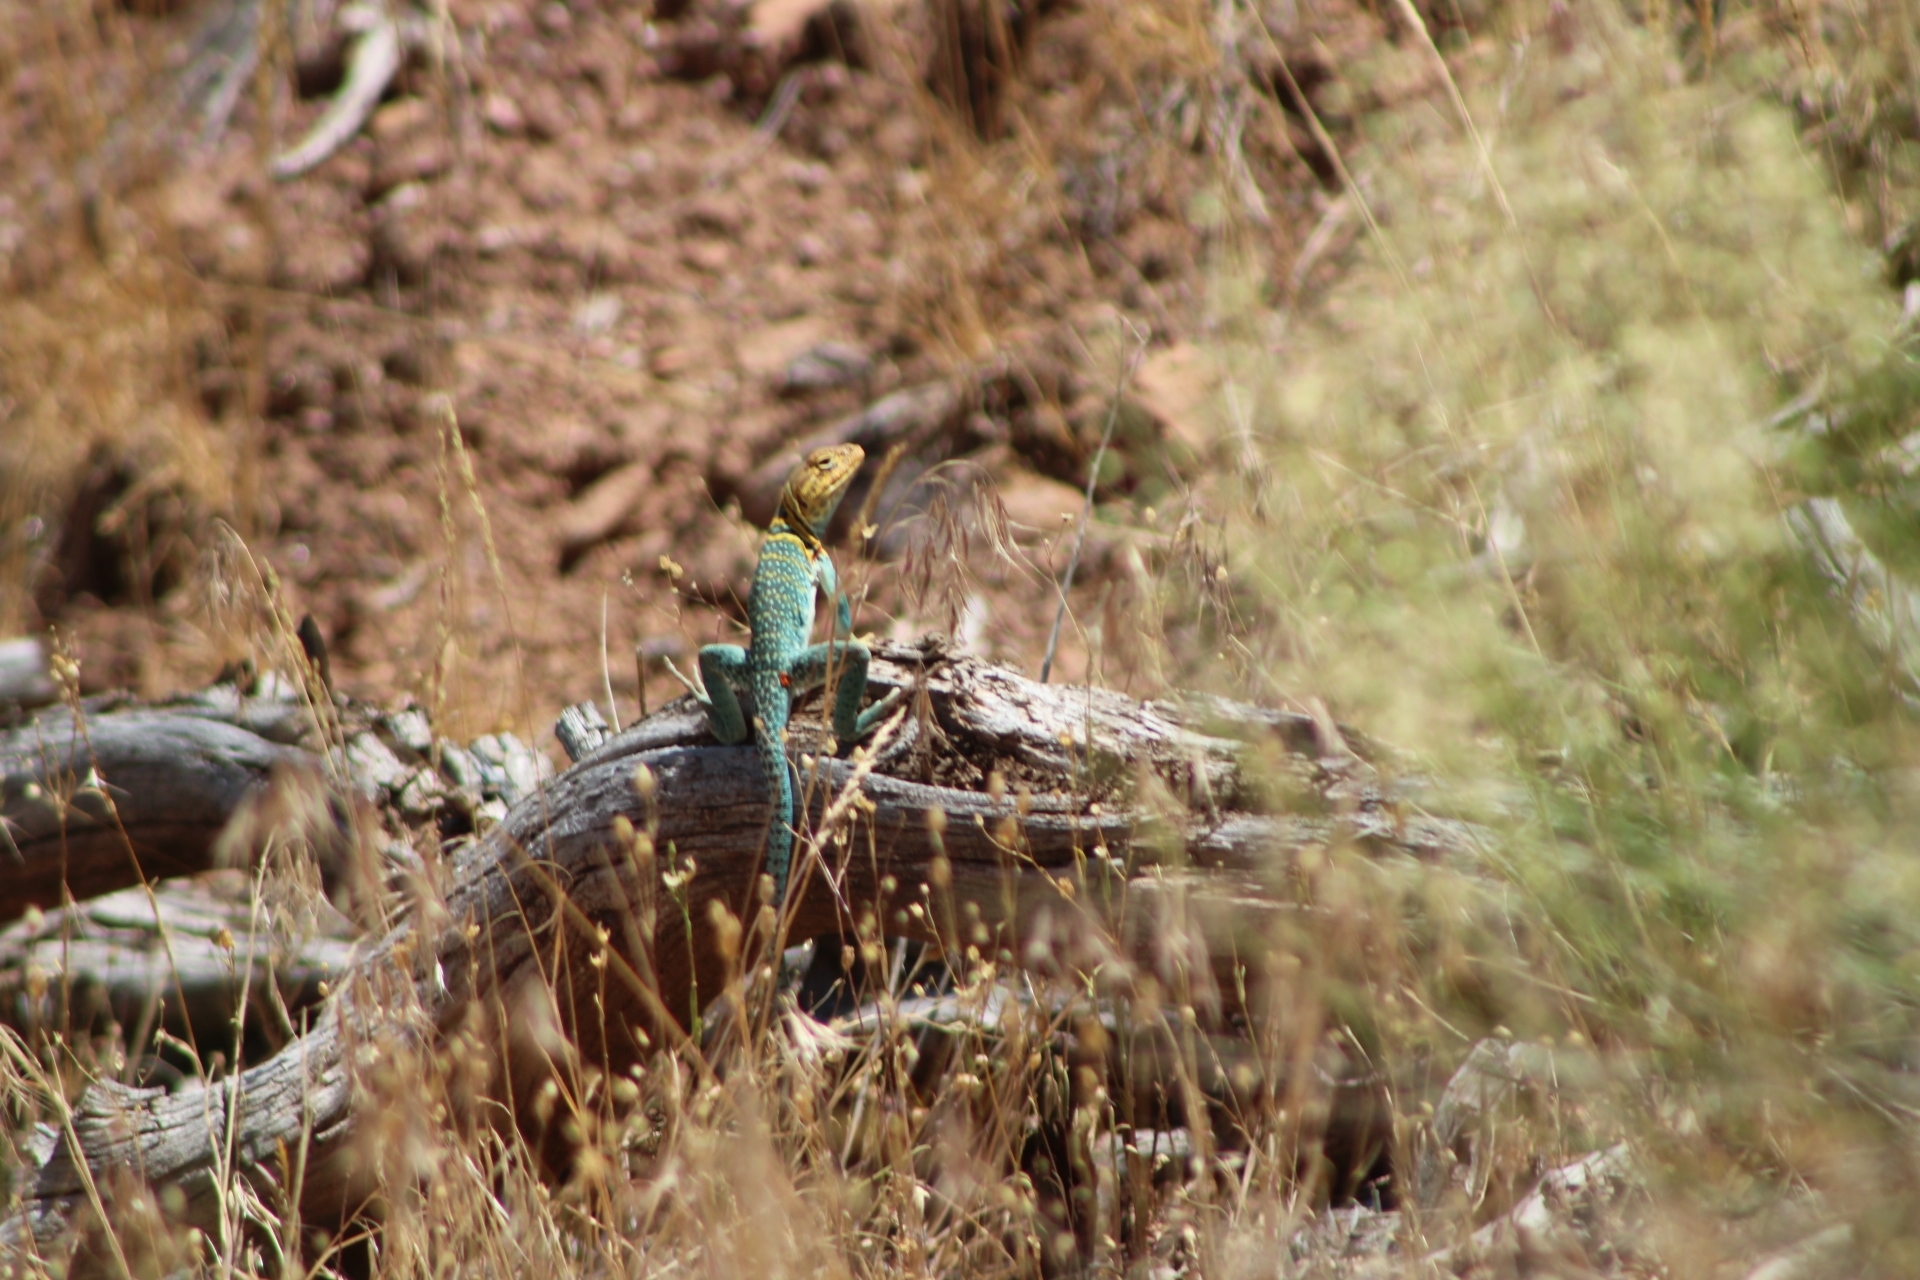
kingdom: Animalia
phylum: Chordata
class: Squamata
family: Crotaphytidae
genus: Crotaphytus
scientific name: Crotaphytus collaris
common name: Collared lizard
